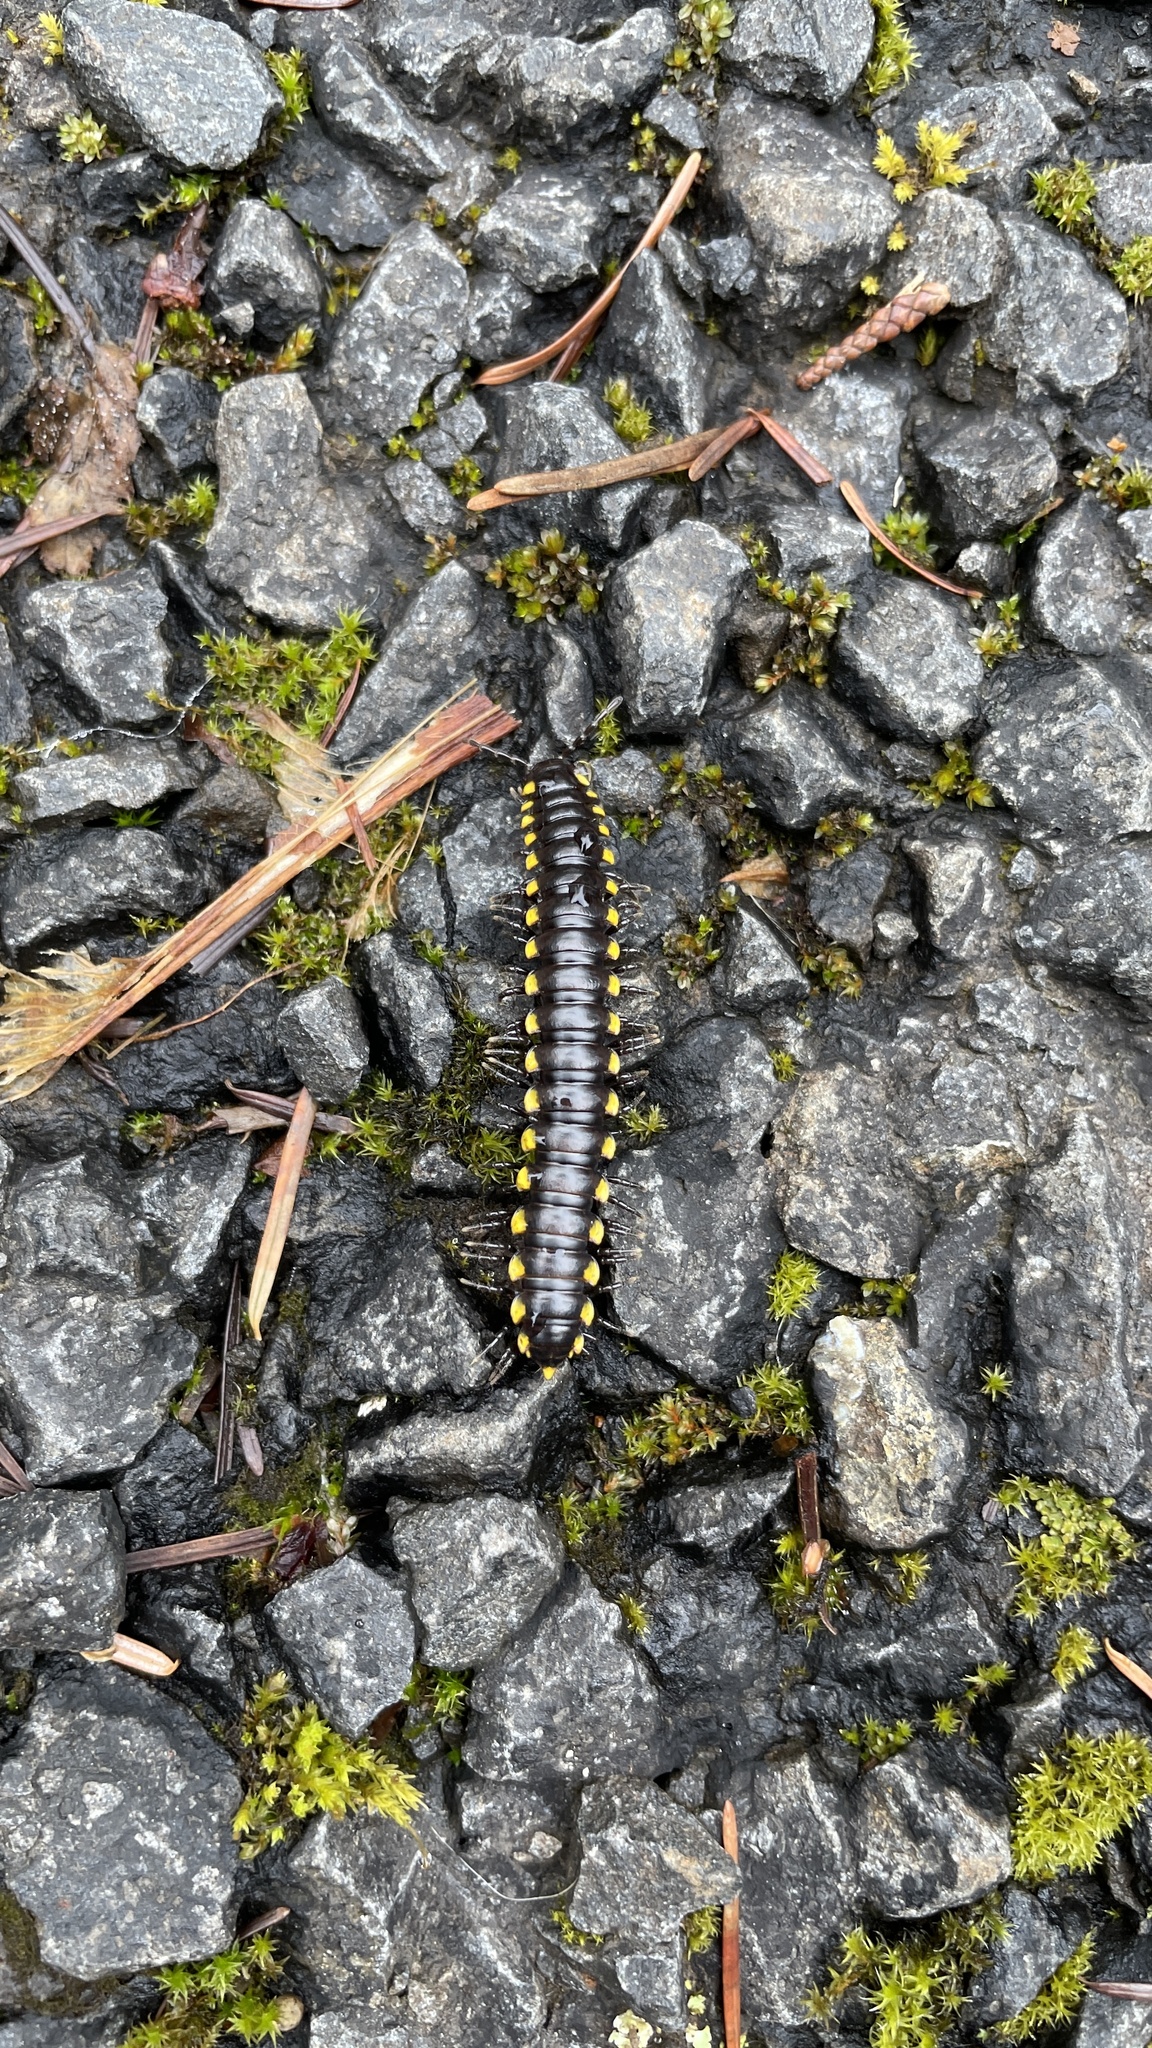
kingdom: Animalia
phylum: Arthropoda
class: Diplopoda
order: Polydesmida
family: Xystodesmidae
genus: Harpaphe
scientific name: Harpaphe haydeniana
